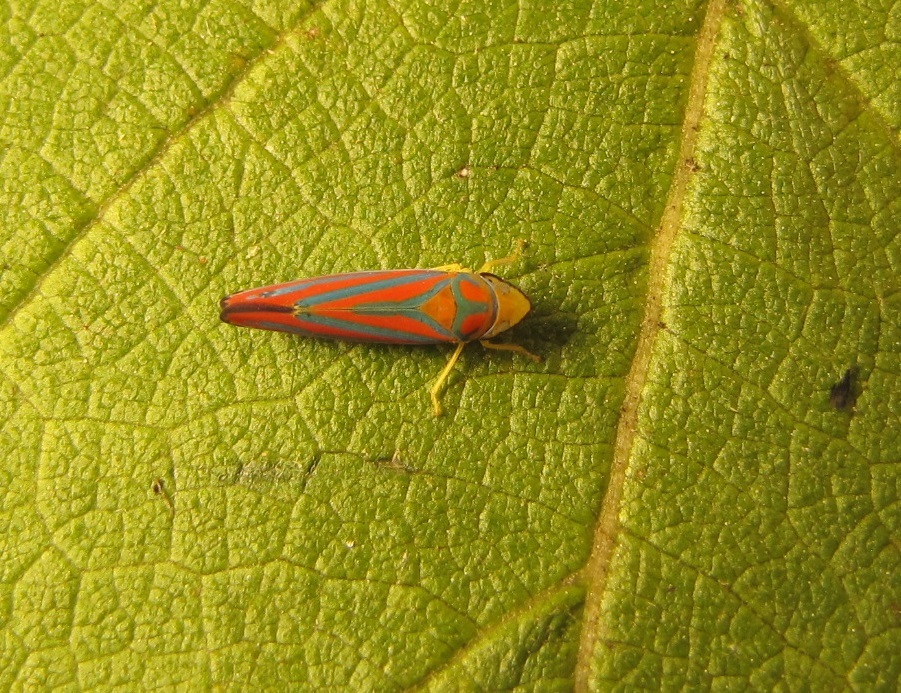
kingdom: Animalia
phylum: Arthropoda
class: Insecta
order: Hemiptera
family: Cicadellidae
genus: Graphocephala
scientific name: Graphocephala coccinea
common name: Candy-striped leafhopper
